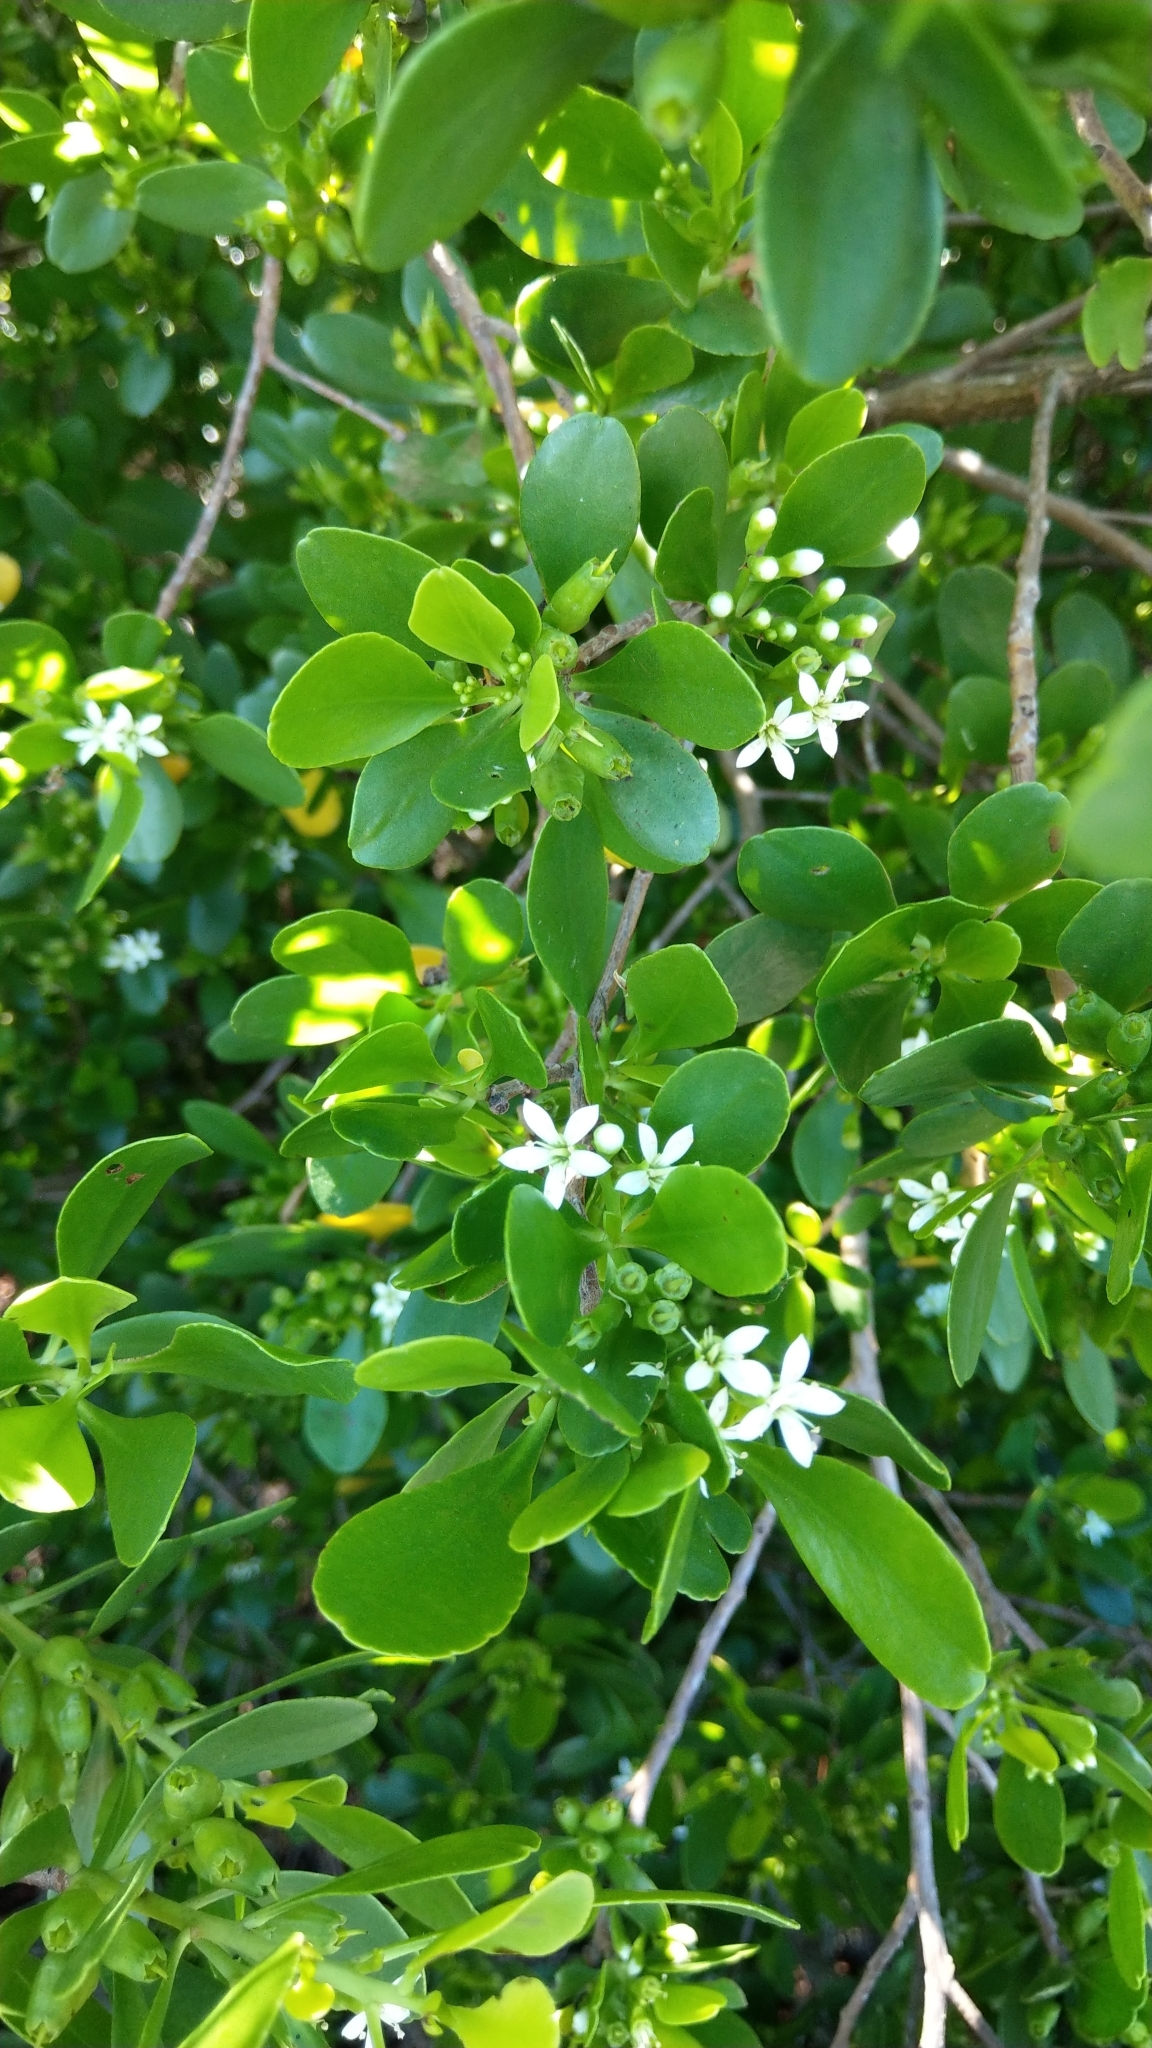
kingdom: Plantae
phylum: Tracheophyta
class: Magnoliopsida
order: Myrtales
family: Combretaceae
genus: Lumnitzera
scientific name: Lumnitzera racemosa
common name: White-flowered black mangrove
